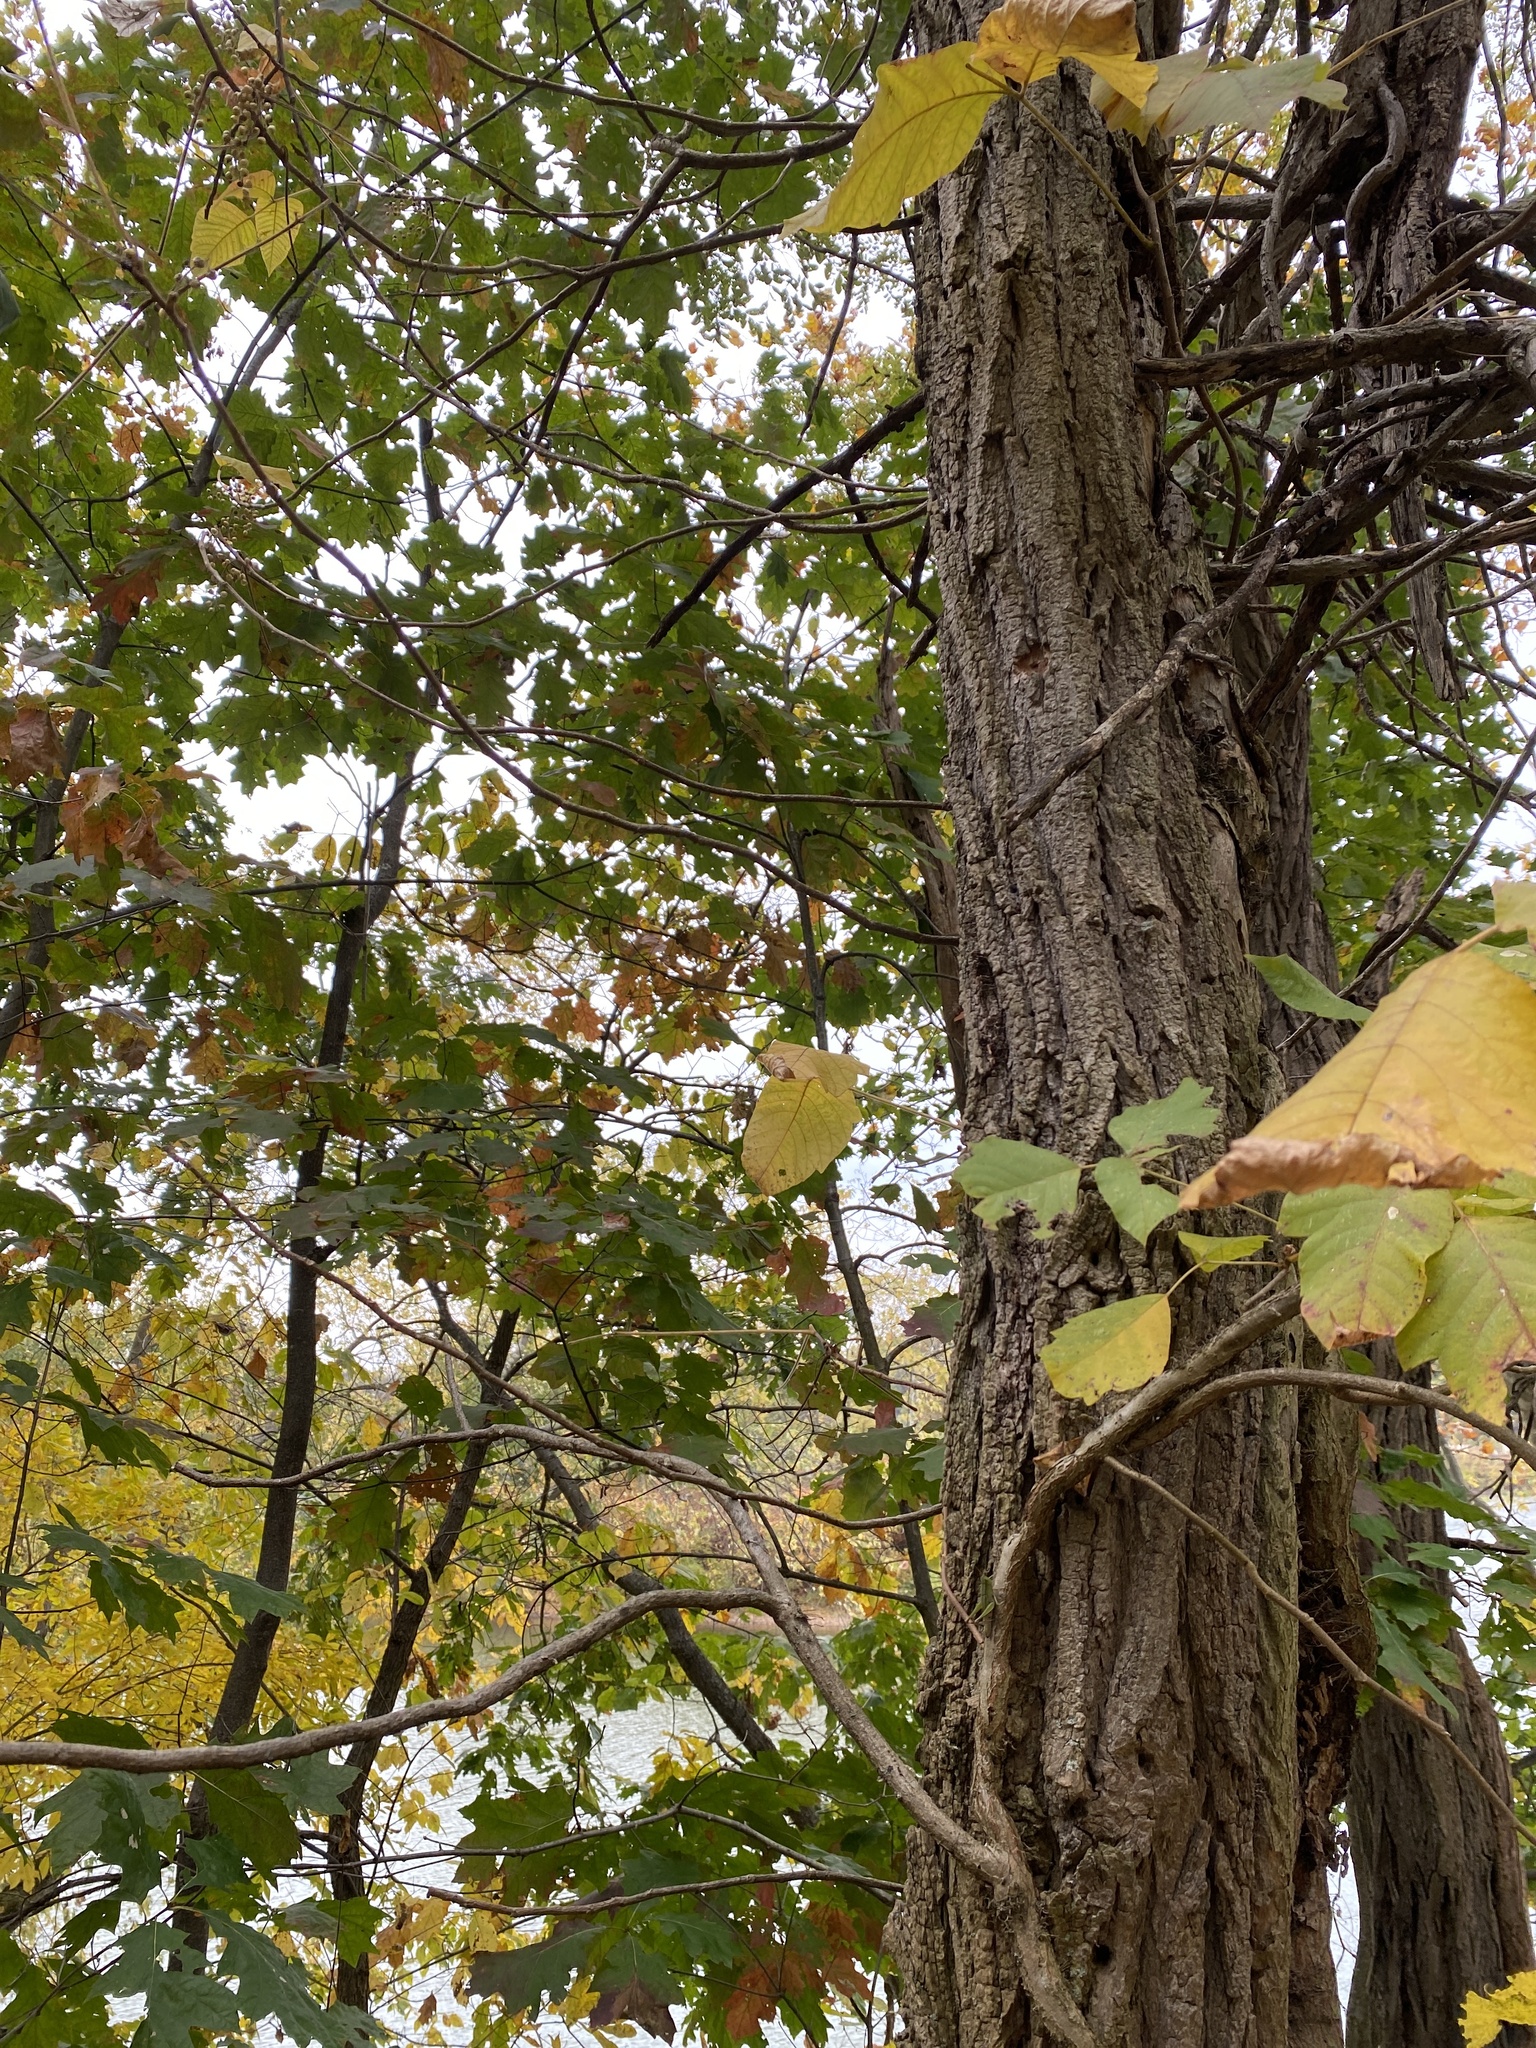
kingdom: Plantae
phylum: Tracheophyta
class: Magnoliopsida
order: Sapindales
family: Anacardiaceae
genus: Toxicodendron
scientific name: Toxicodendron radicans
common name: Poison ivy
